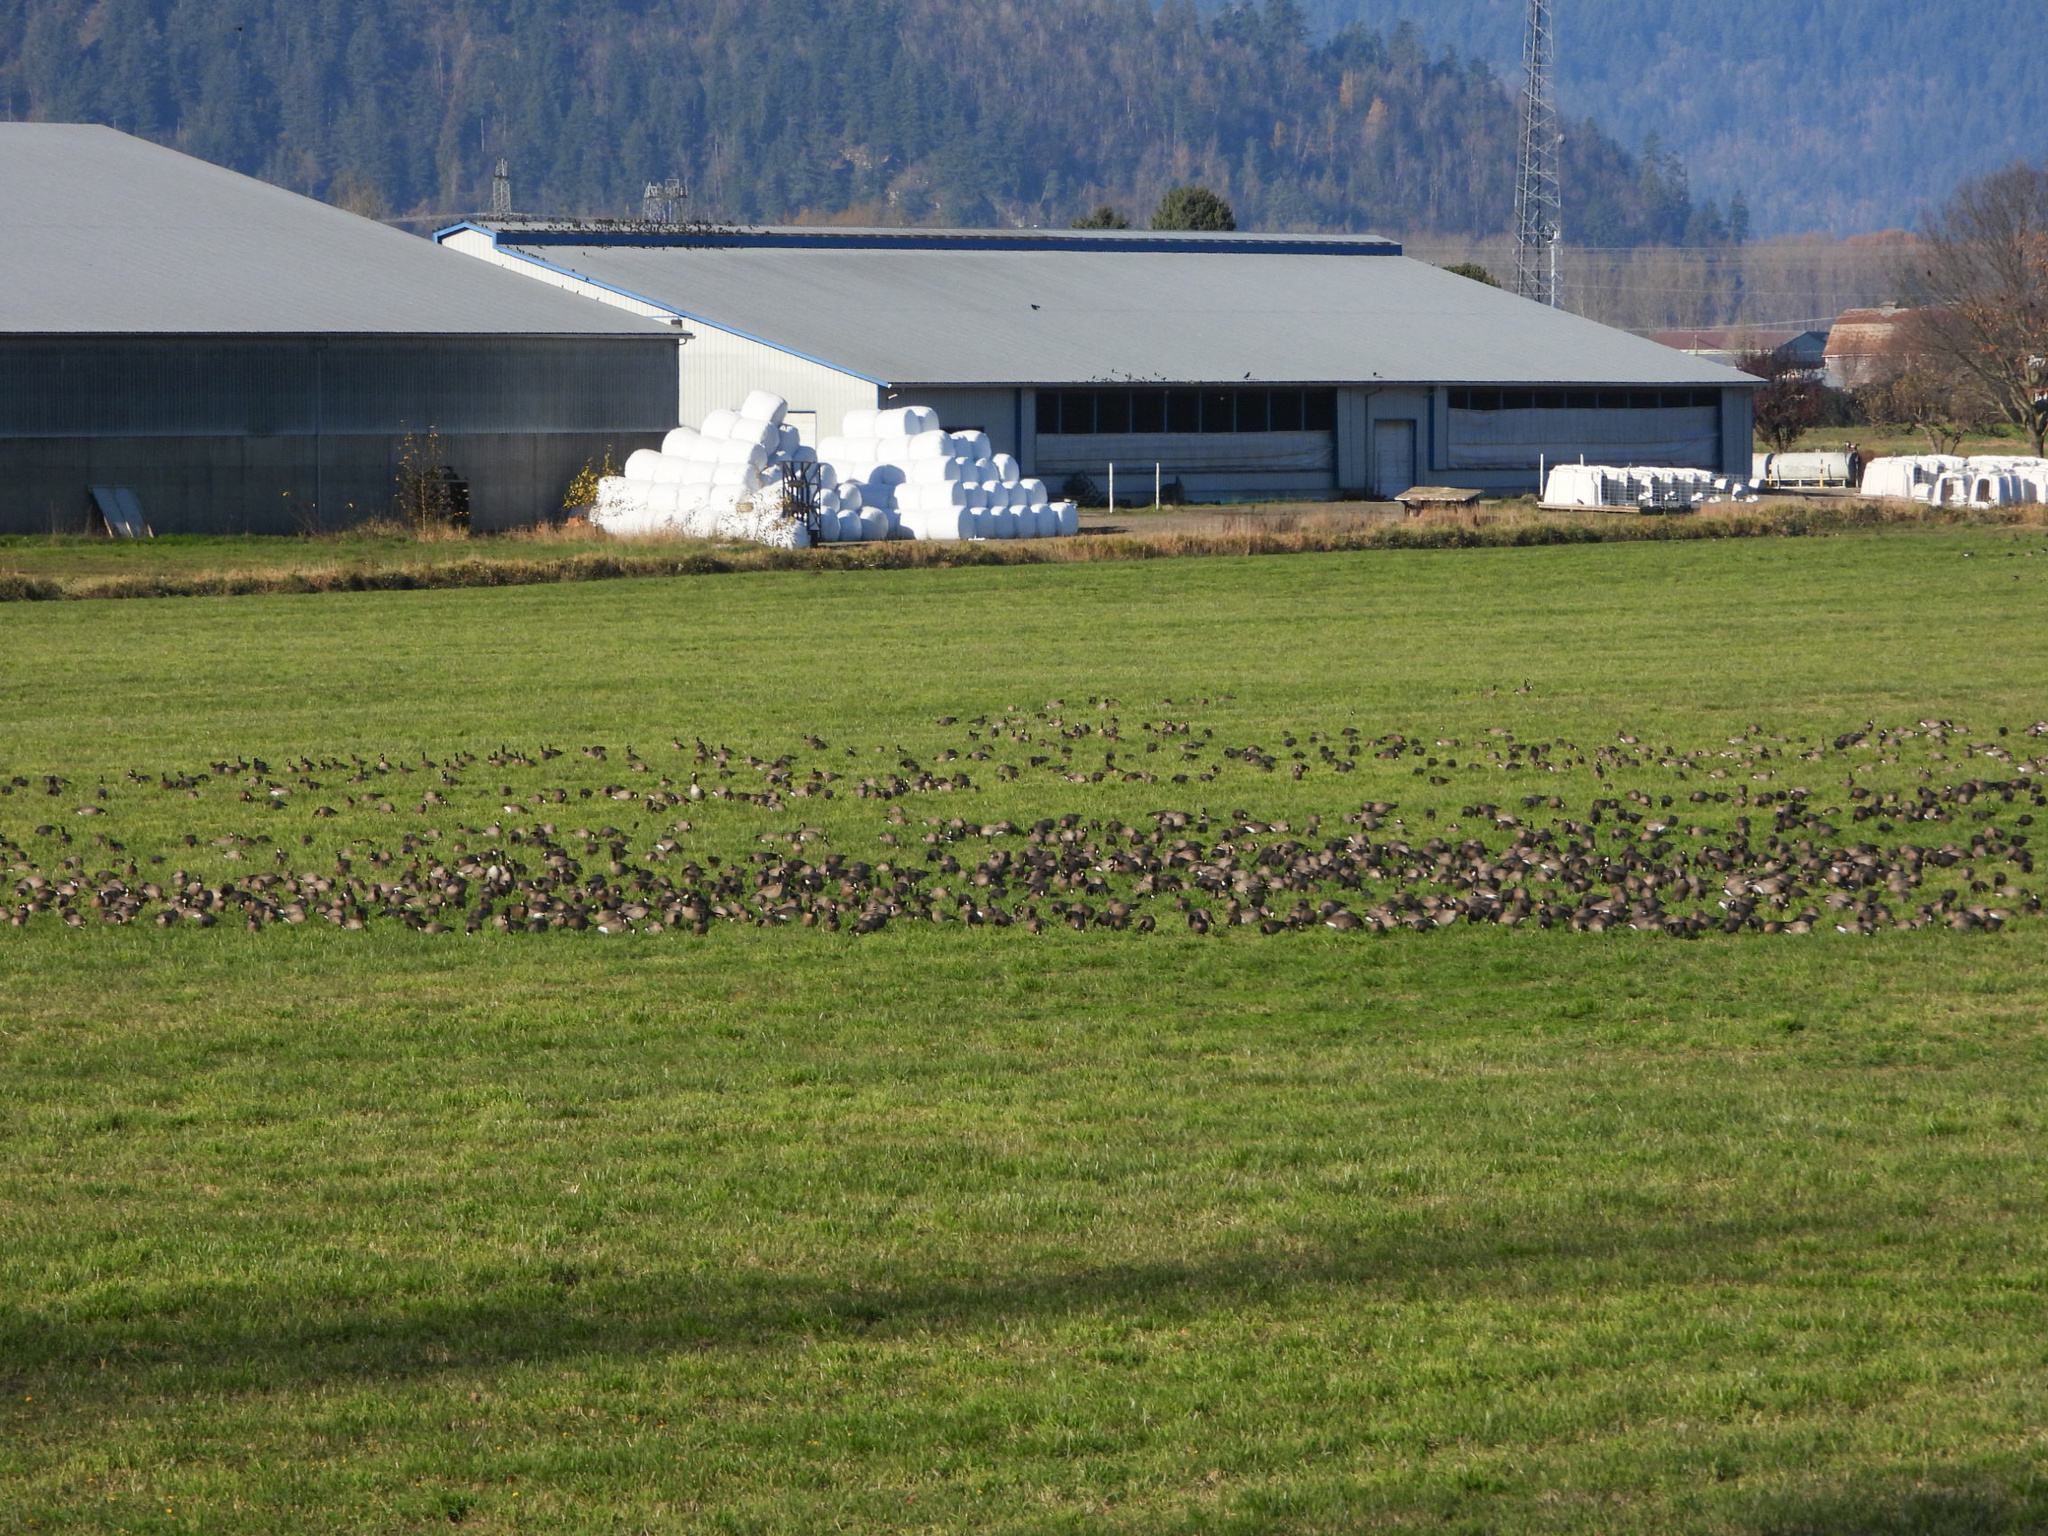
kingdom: Animalia
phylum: Chordata
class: Aves
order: Anseriformes
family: Anatidae
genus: Branta
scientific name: Branta hutchinsii
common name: Cackling goose
